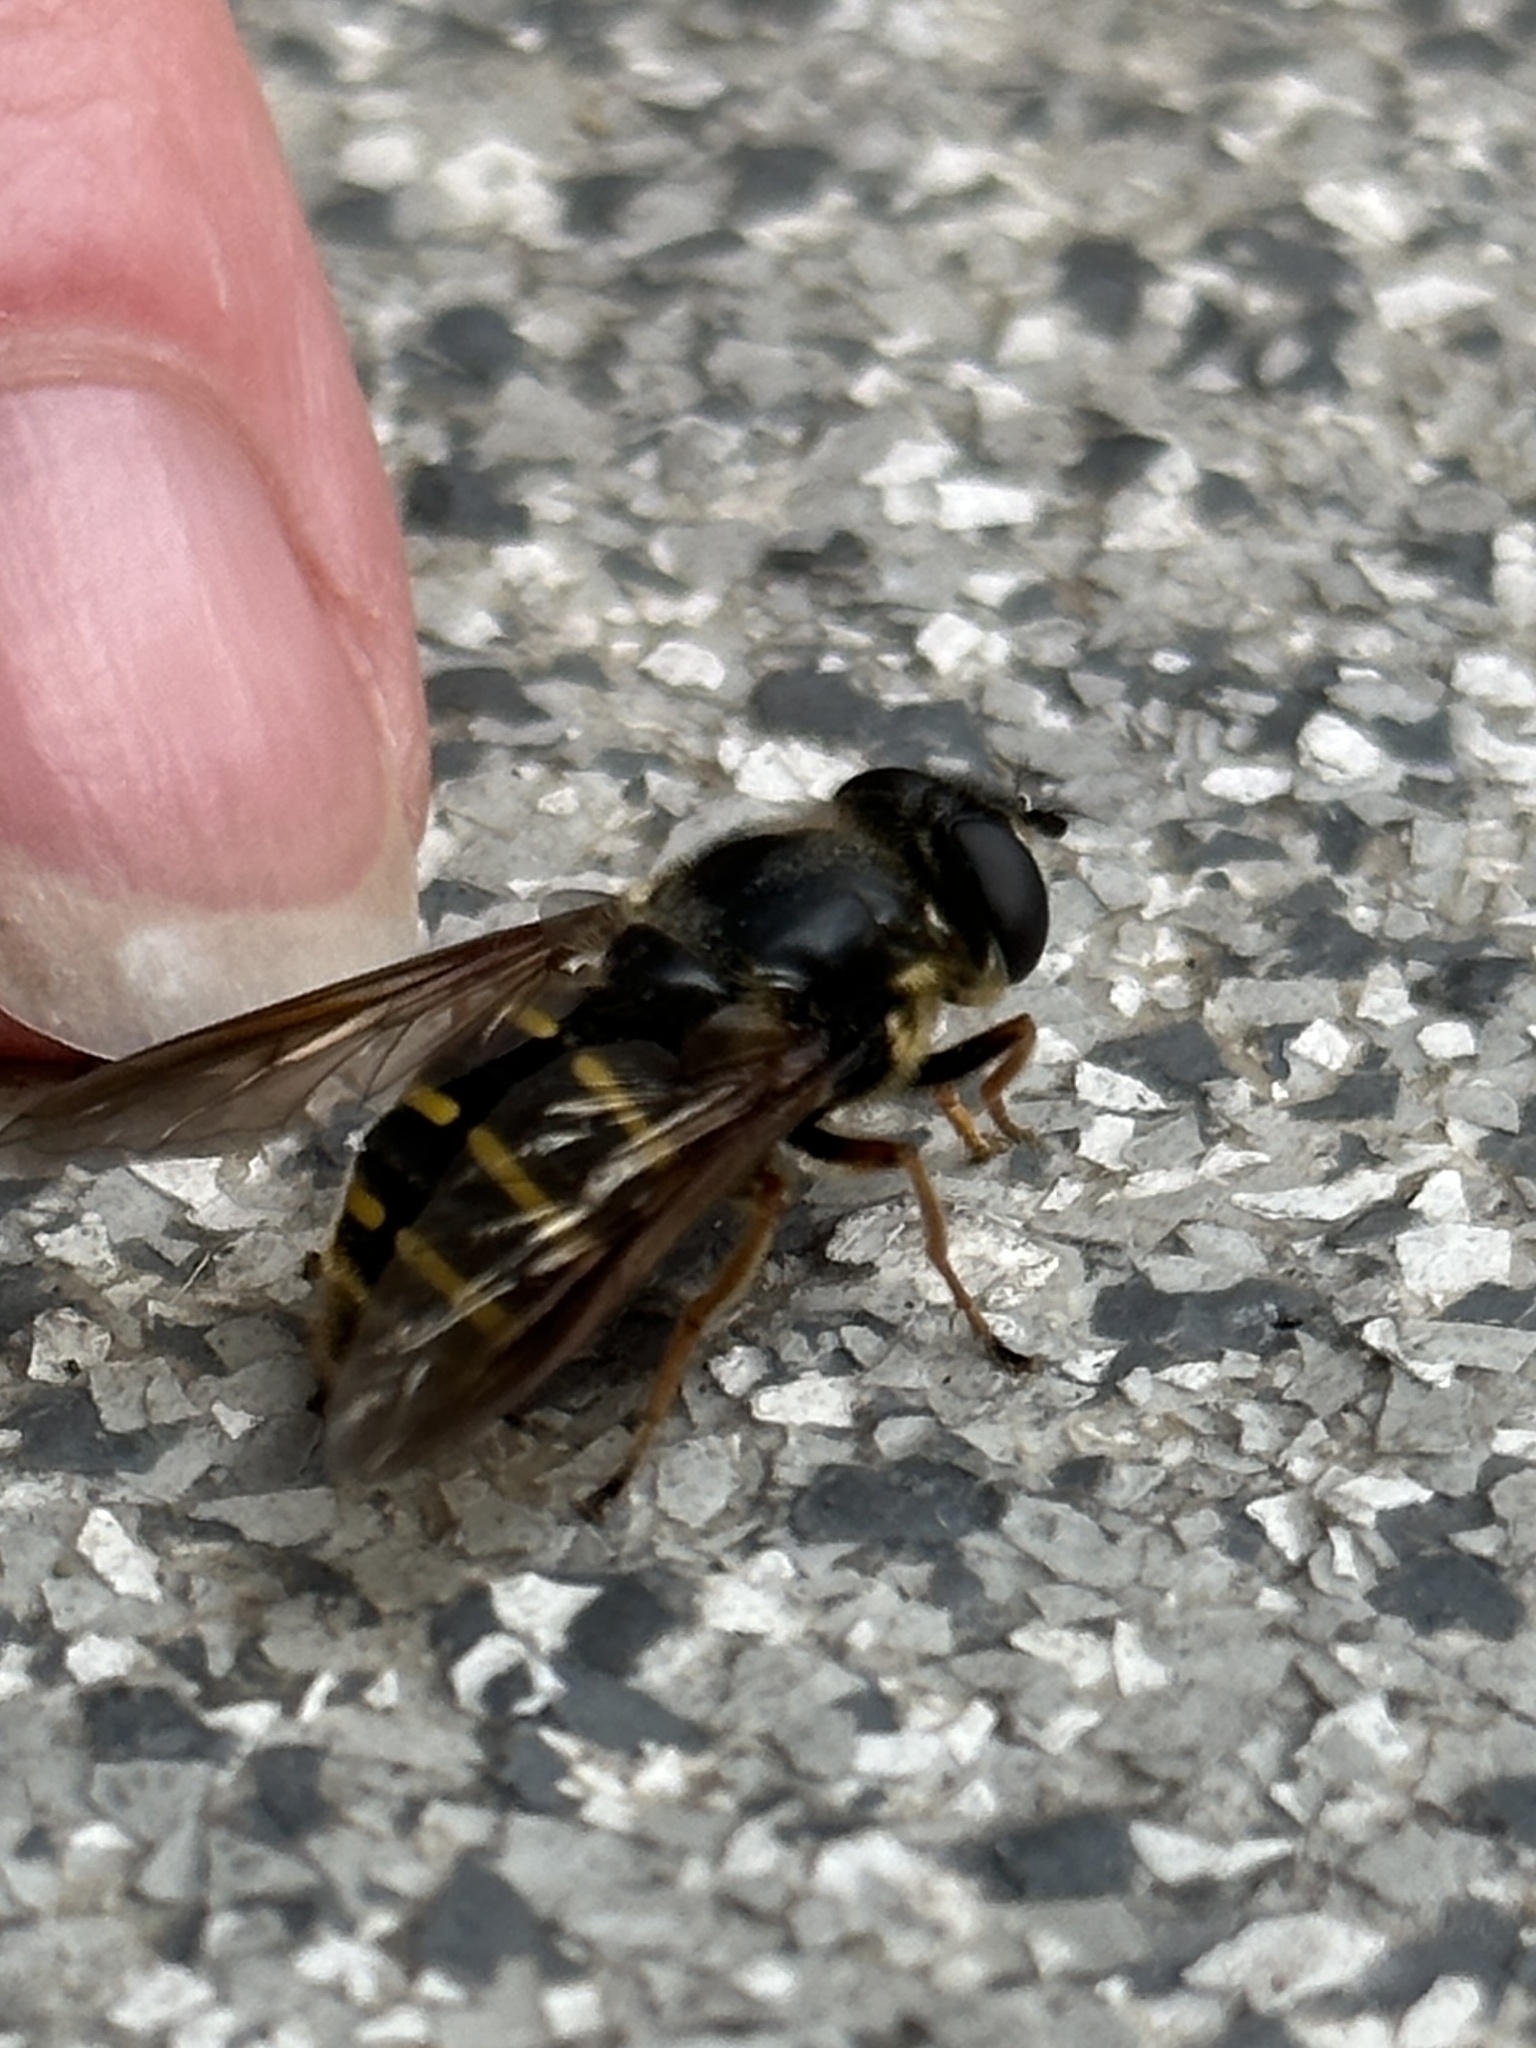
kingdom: Animalia
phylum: Arthropoda
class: Insecta
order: Diptera
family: Syrphidae
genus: Sericomyia
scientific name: Sericomyia chalcopyga
